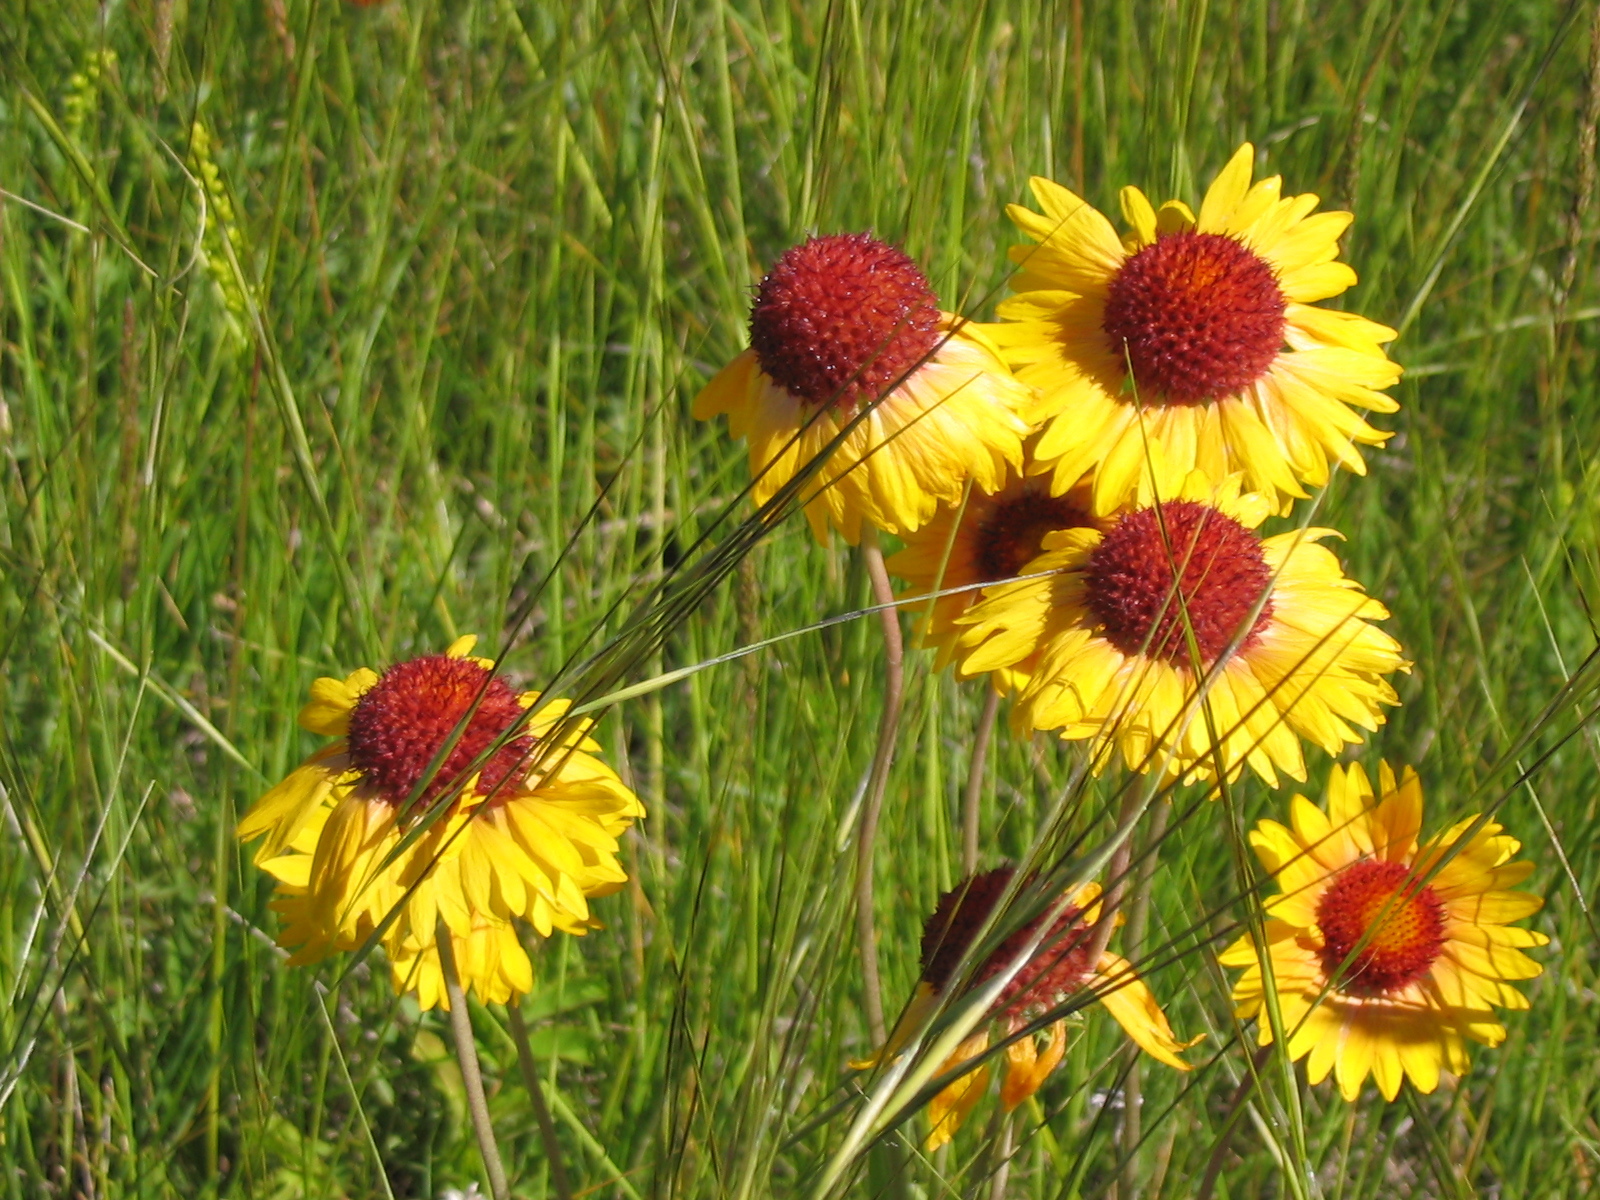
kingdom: Plantae
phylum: Tracheophyta
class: Magnoliopsida
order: Asterales
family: Asteraceae
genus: Gaillardia
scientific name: Gaillardia aristata
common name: Blanket-flower
